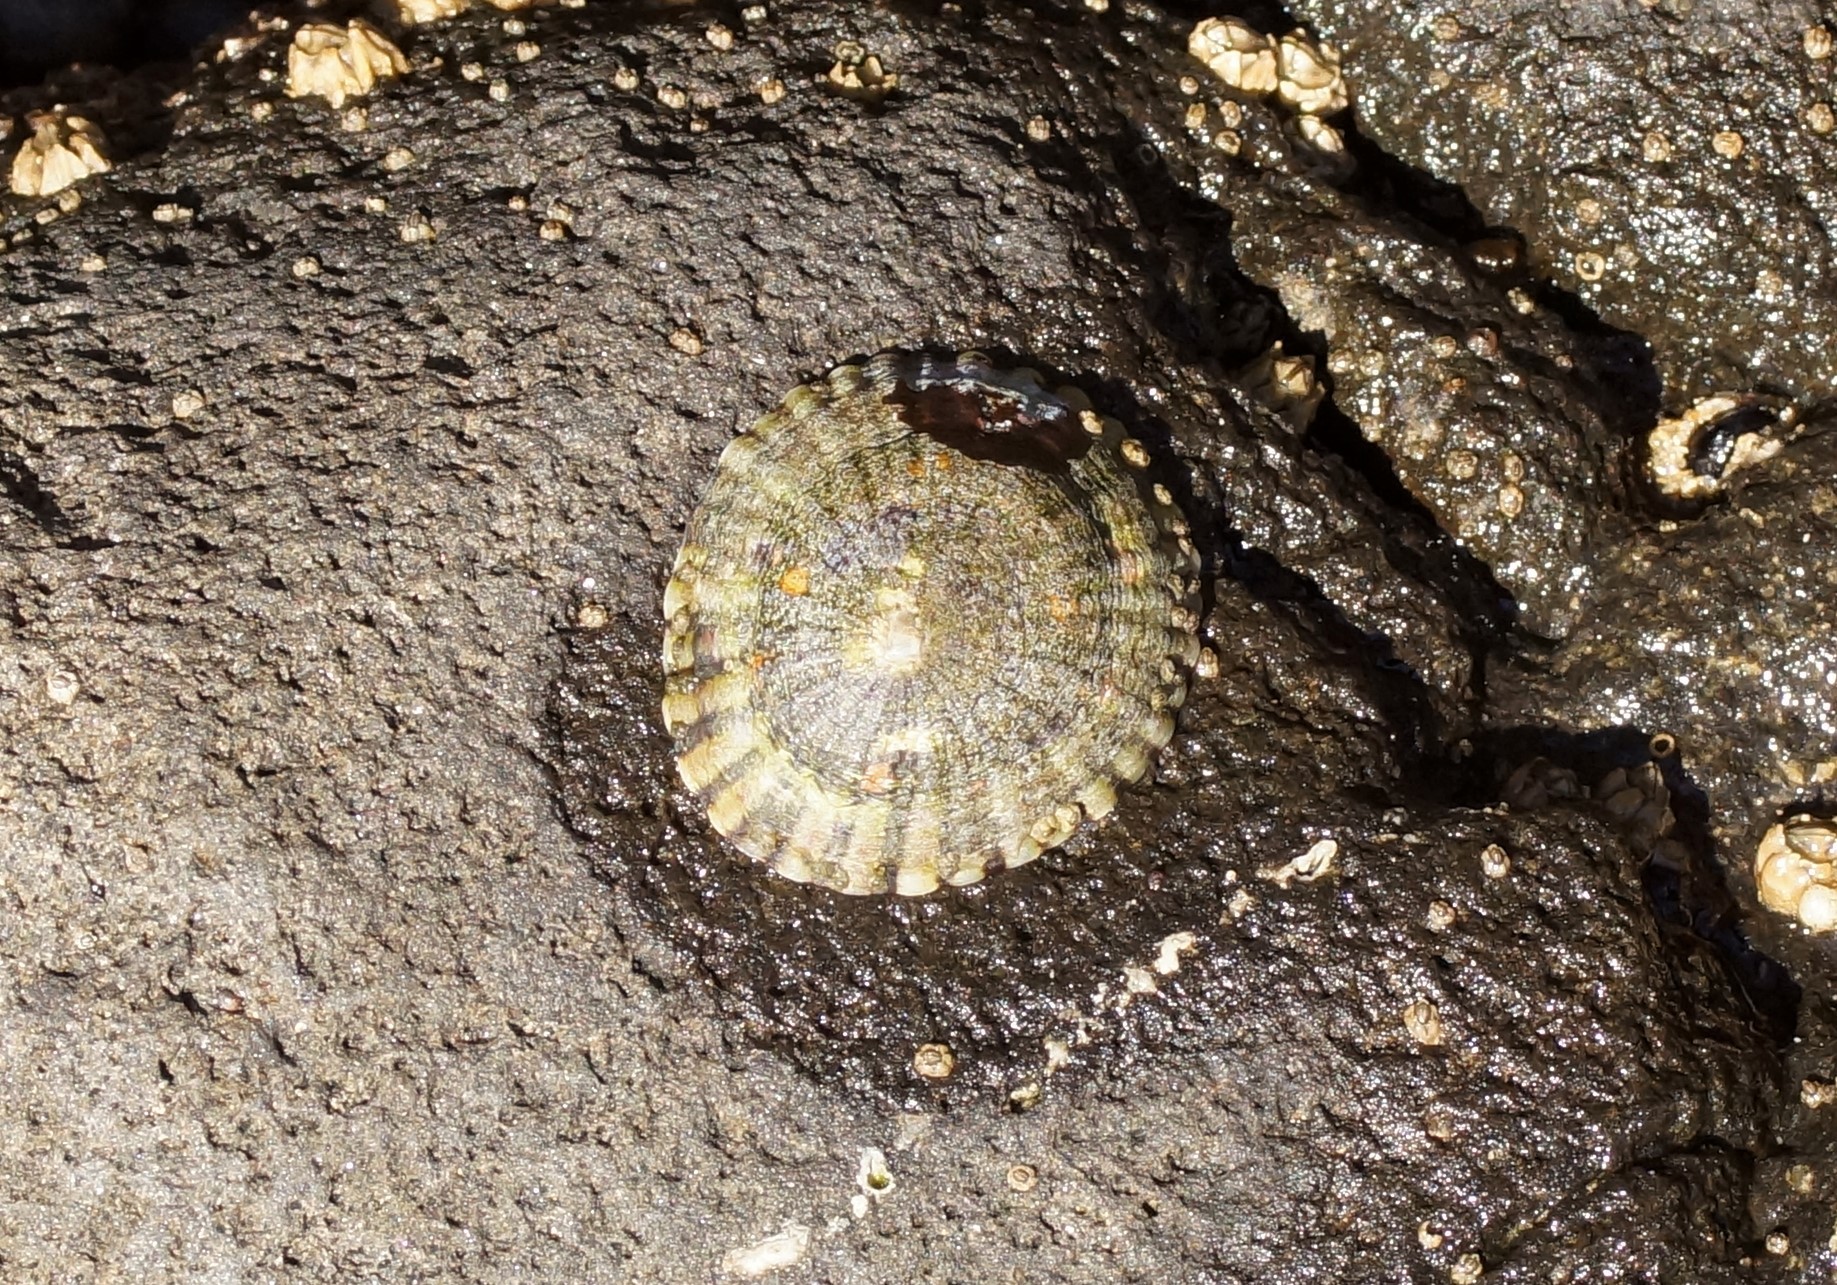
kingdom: Animalia
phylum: Mollusca
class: Gastropoda
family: Nacellidae
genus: Cellana
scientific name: Cellana tramoserica
